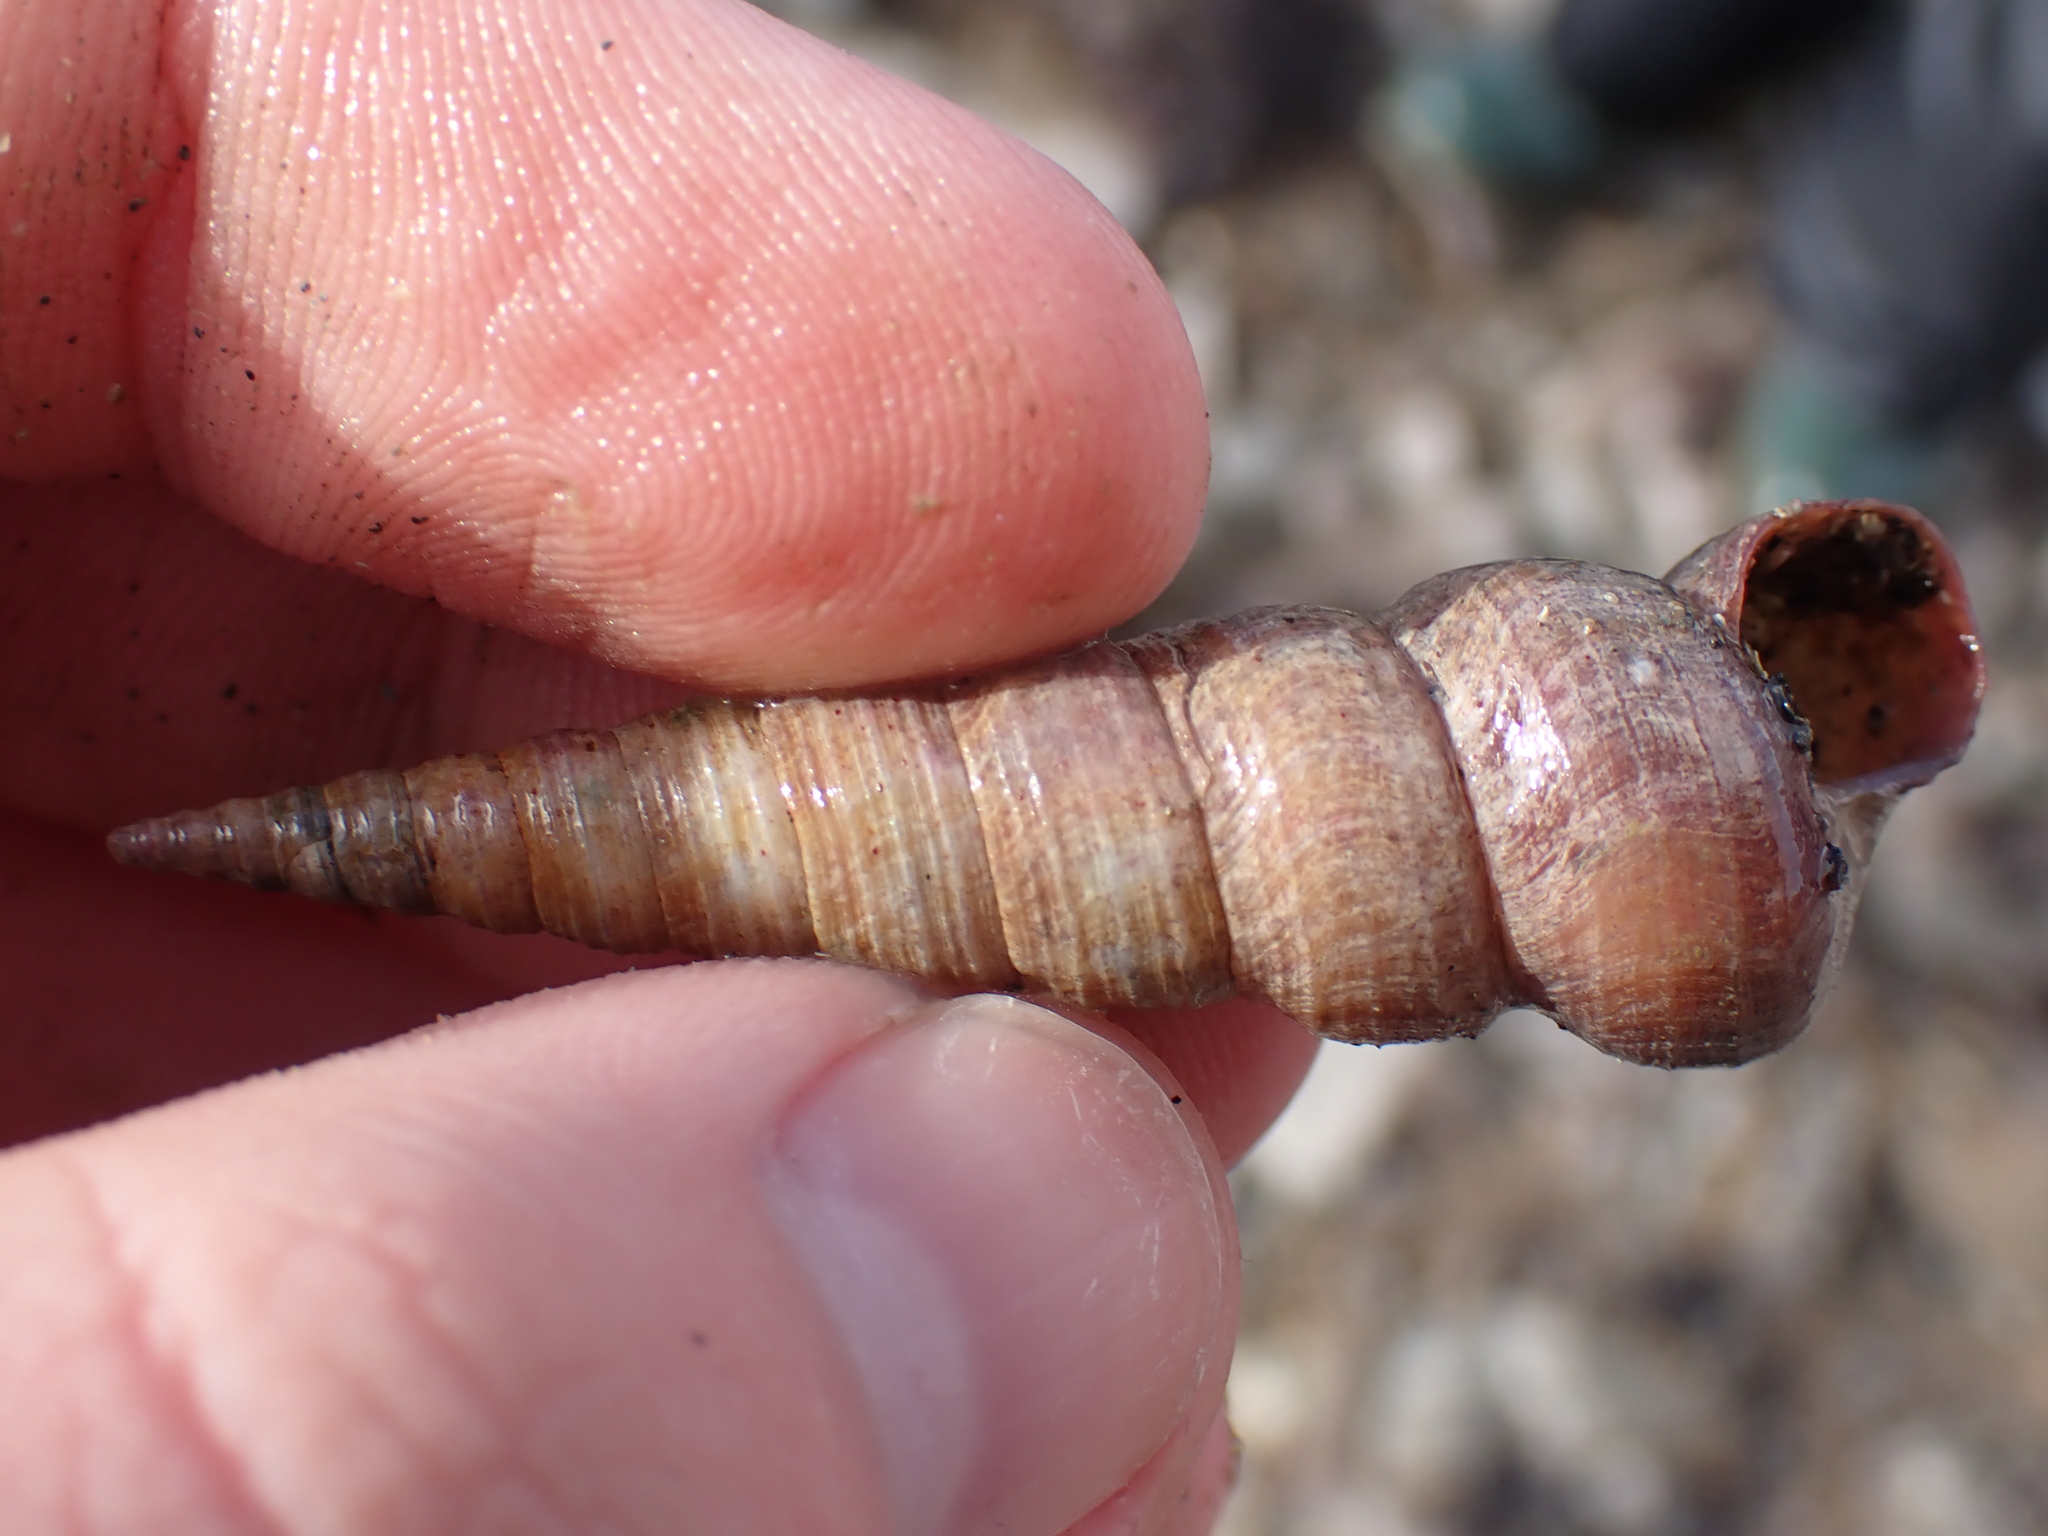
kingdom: Animalia
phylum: Mollusca
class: Gastropoda
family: Turritellidae
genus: Turritellinella
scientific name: Turritellinella tricarinata
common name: Auger shell
